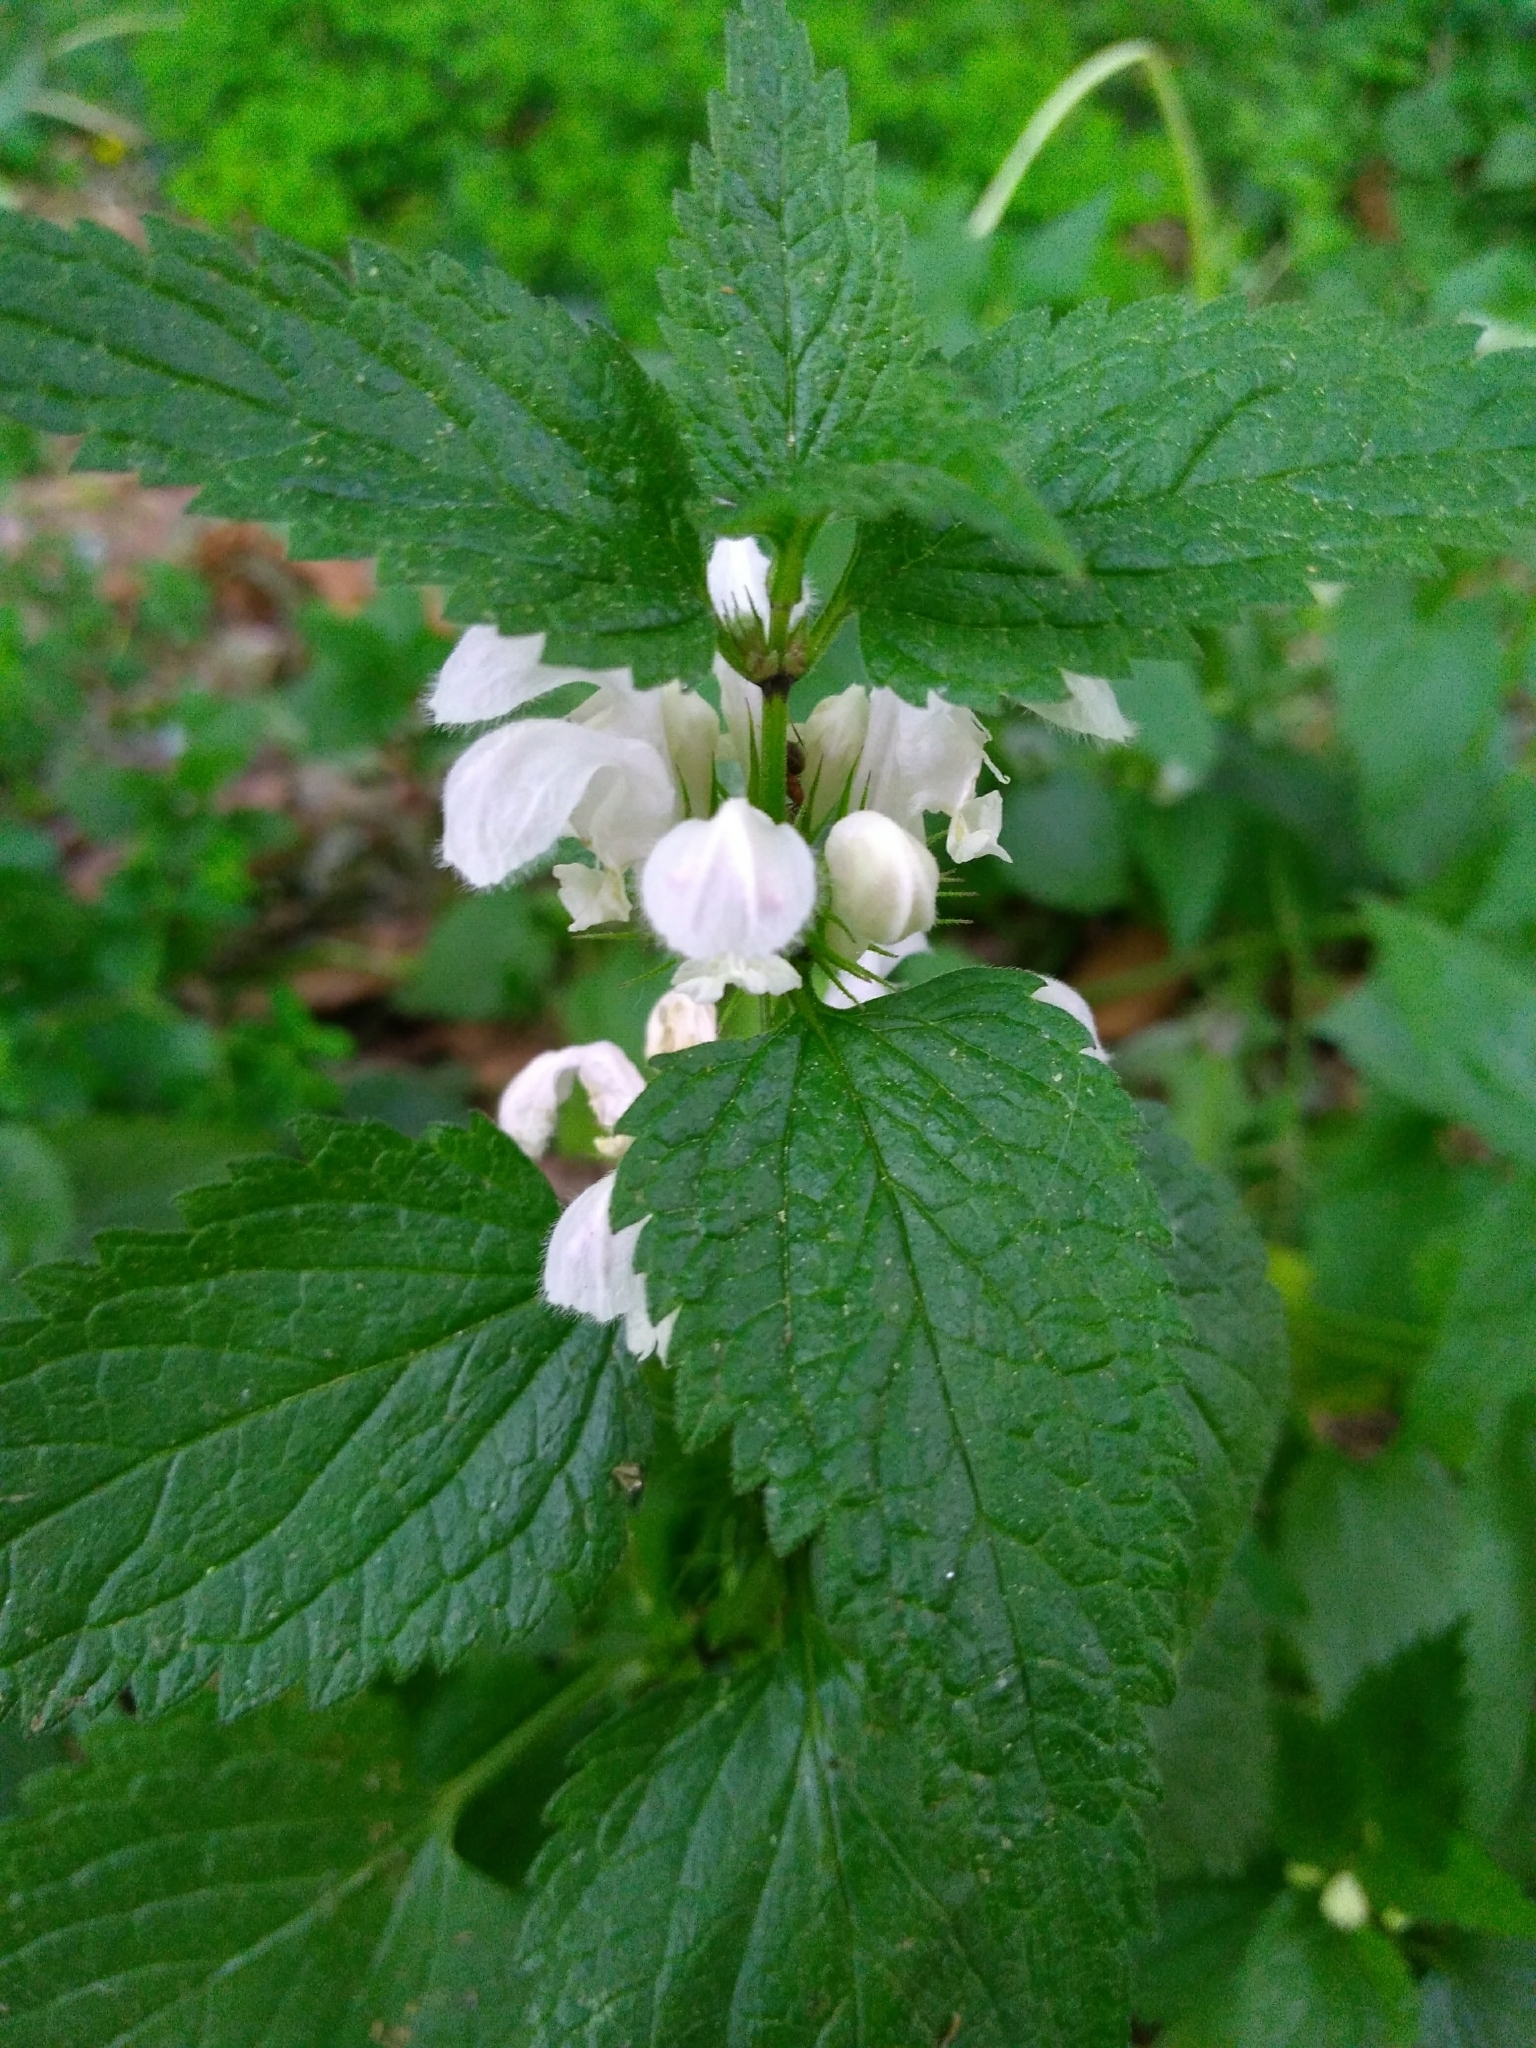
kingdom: Plantae
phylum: Tracheophyta
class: Magnoliopsida
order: Lamiales
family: Lamiaceae
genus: Lamium
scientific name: Lamium album
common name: White dead-nettle
